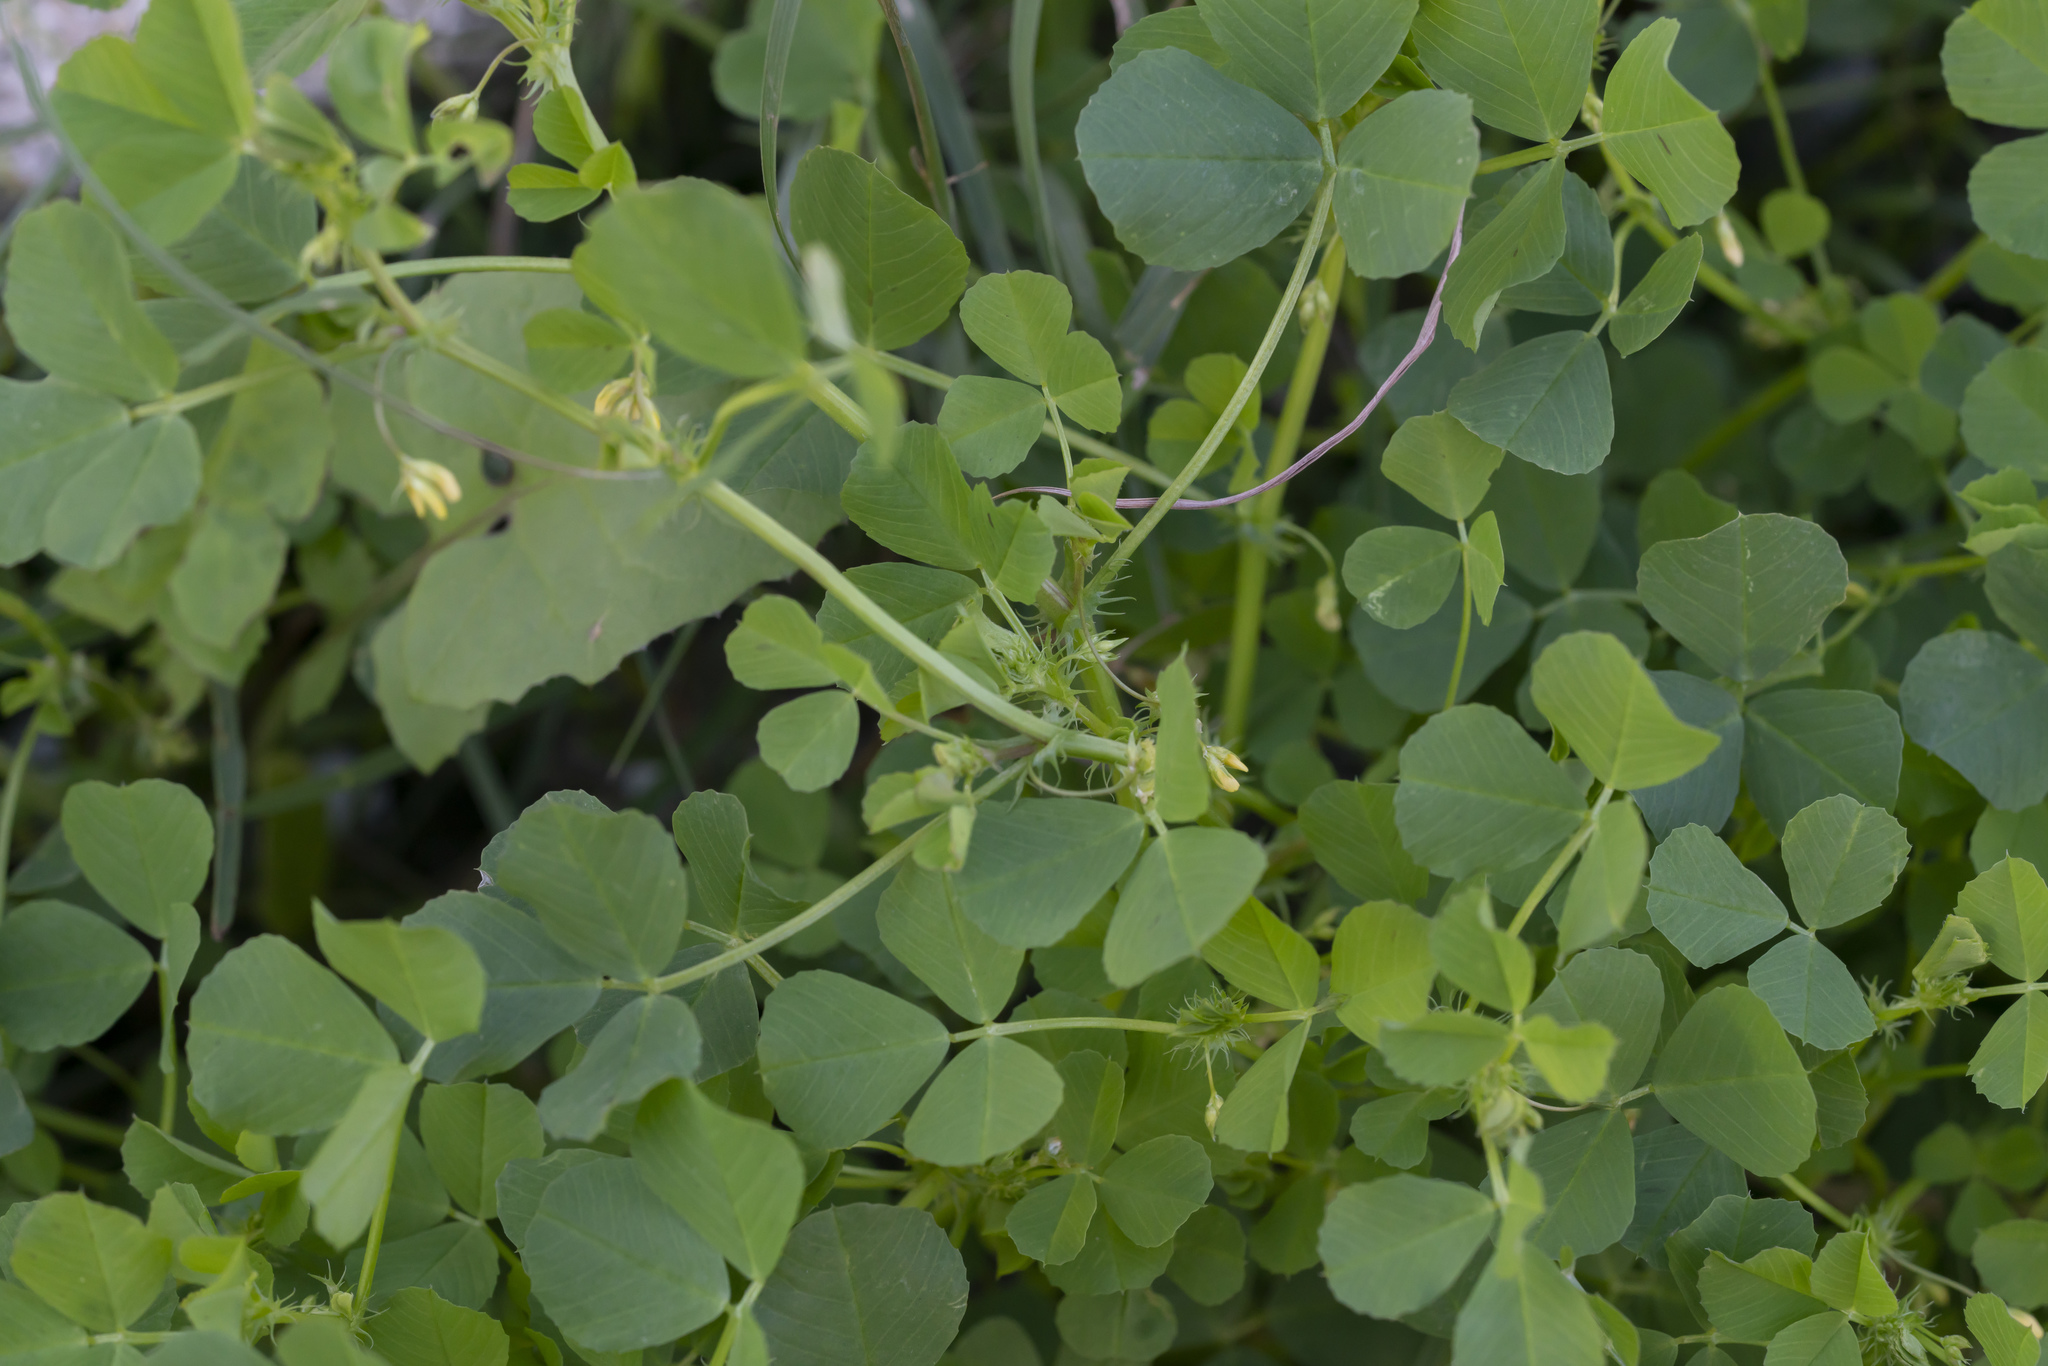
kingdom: Plantae
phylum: Tracheophyta
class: Magnoliopsida
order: Fabales
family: Fabaceae
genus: Medicago
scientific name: Medicago
